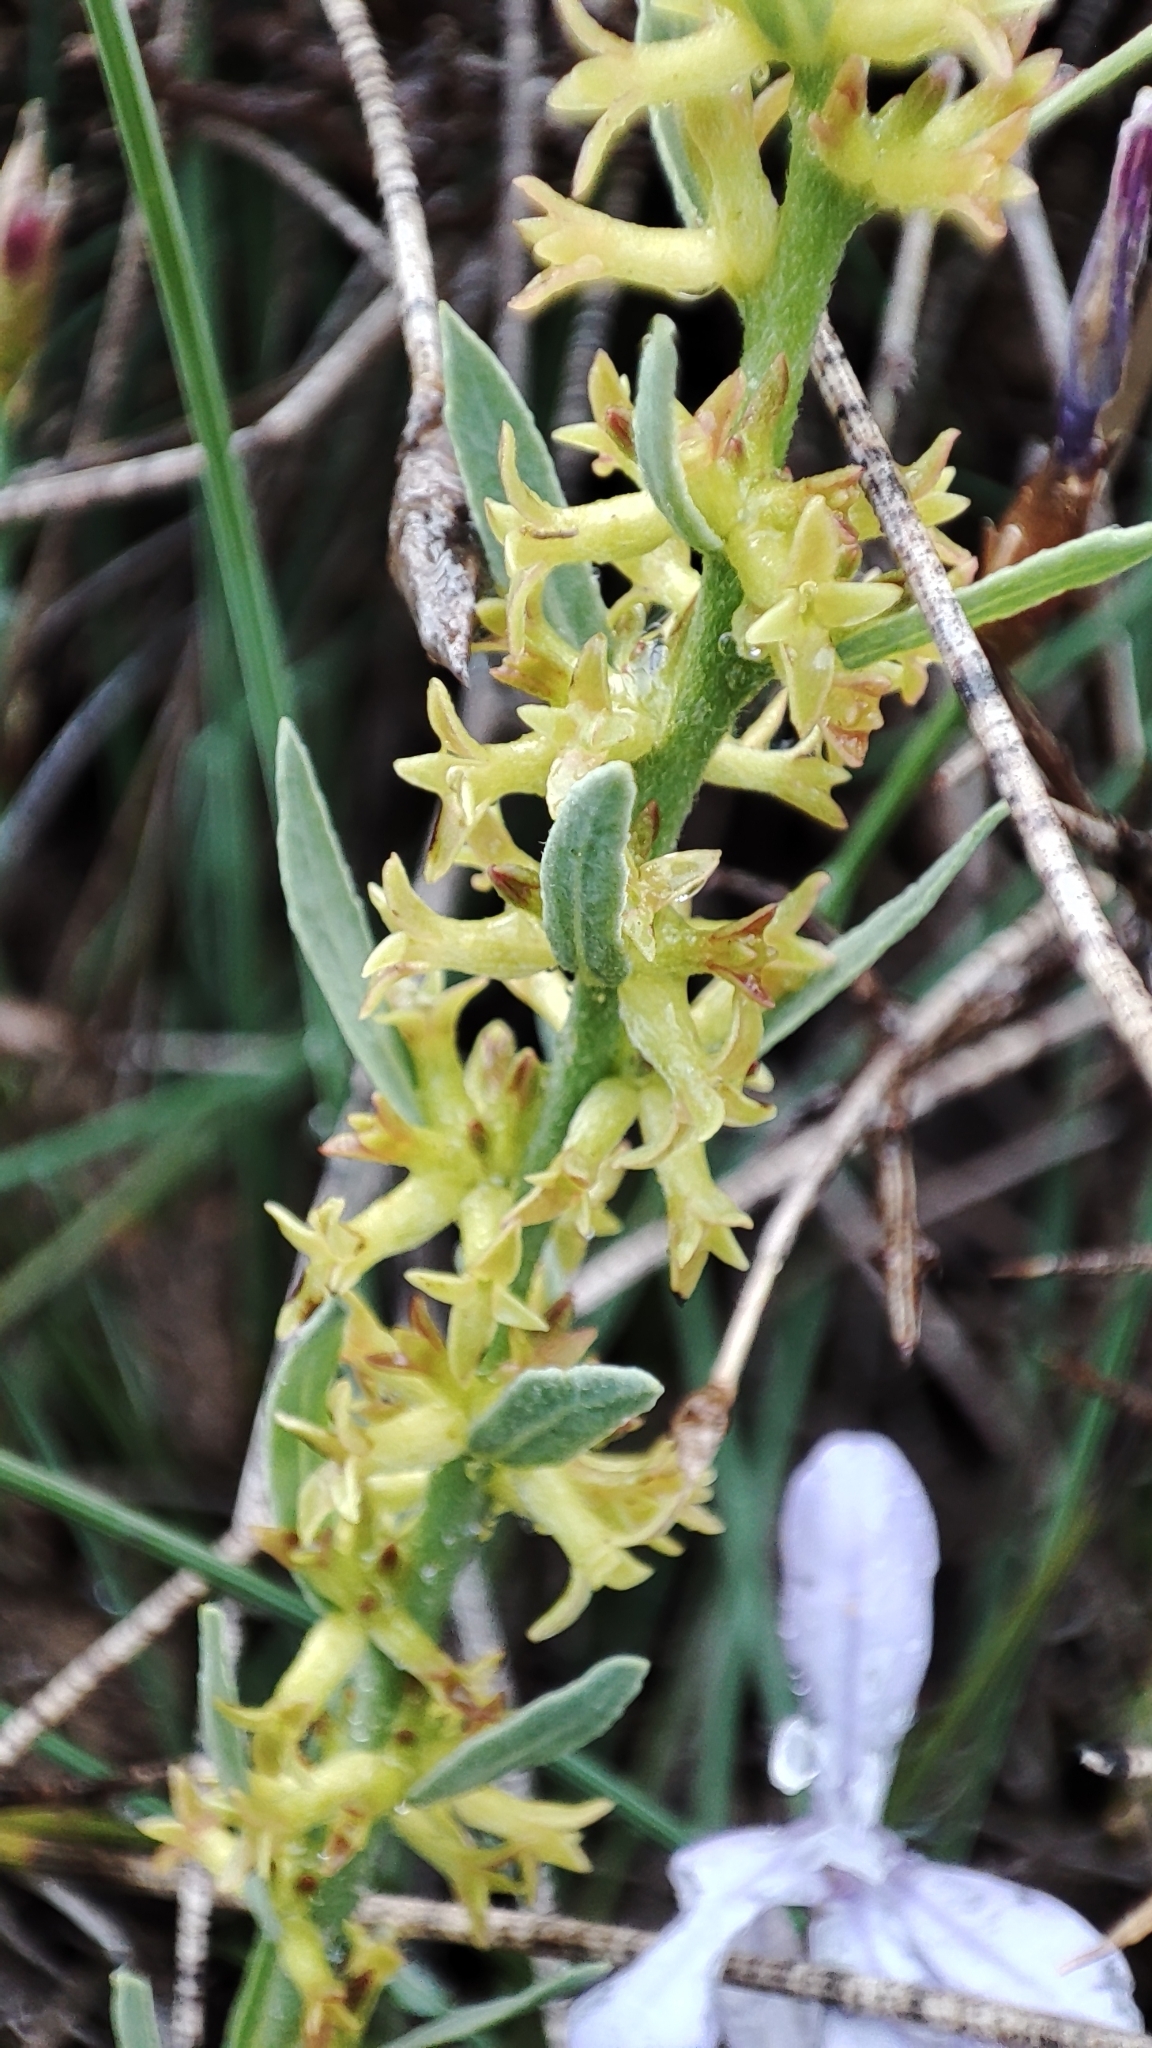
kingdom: Plantae
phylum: Tracheophyta
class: Magnoliopsida
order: Malvales
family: Thymelaeaceae
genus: Thymelaea
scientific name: Thymelaea pubescens
